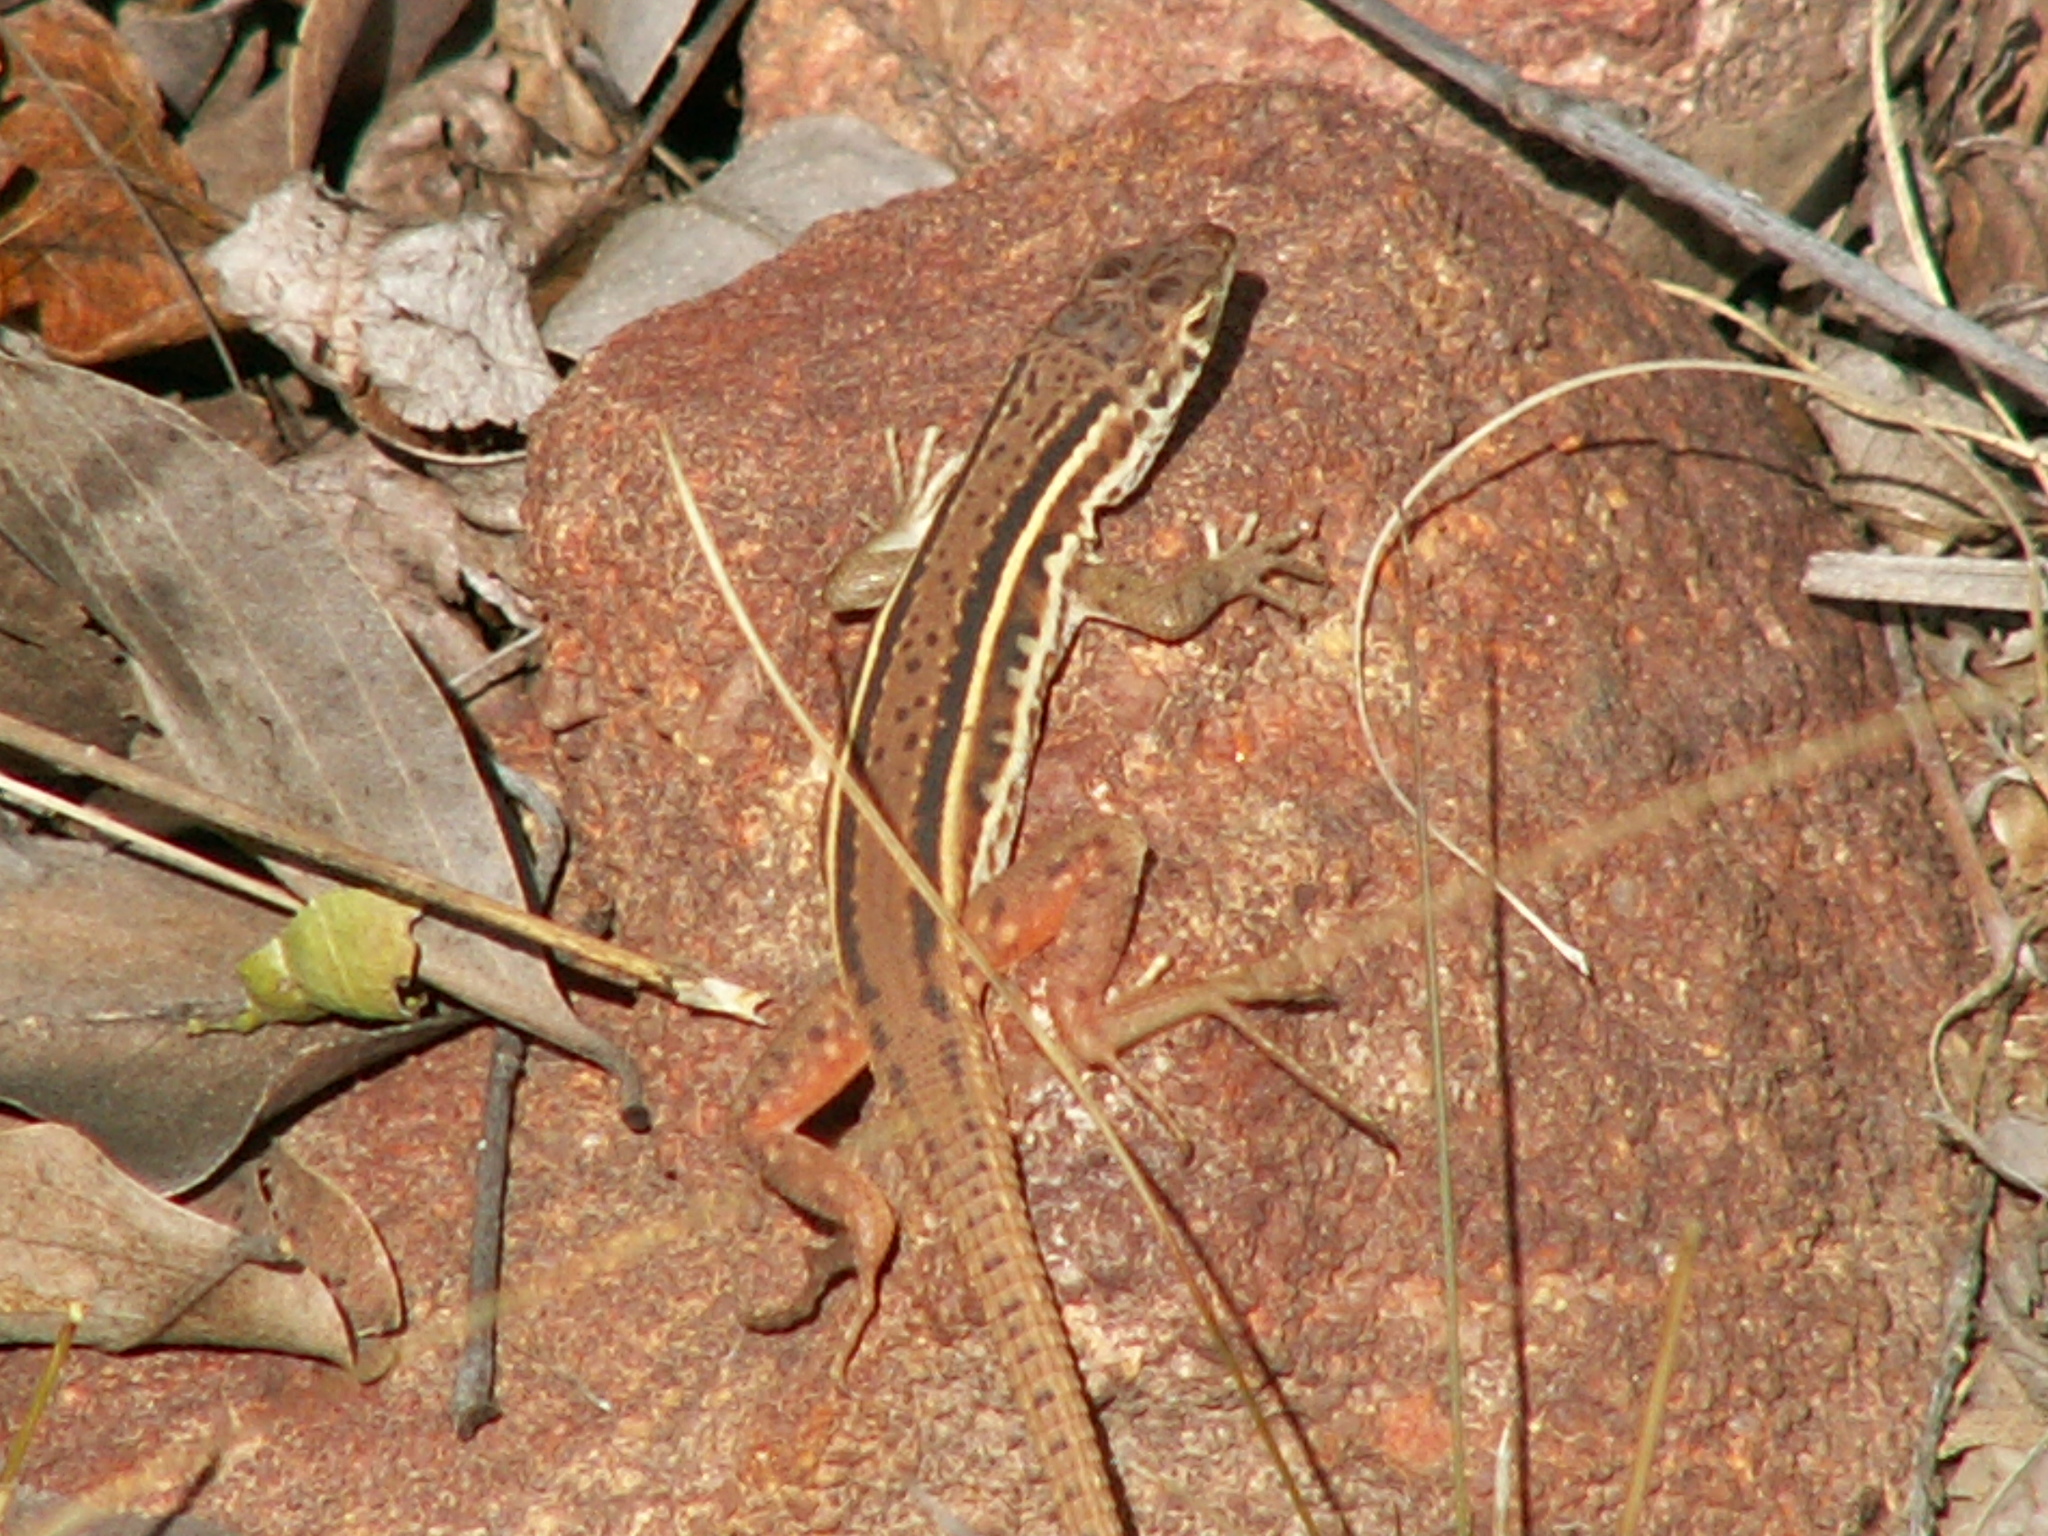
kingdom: Animalia
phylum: Chordata
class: Squamata
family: Lacertidae
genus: Pedioplanis
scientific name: Pedioplanis lineoocellata
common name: Spotted sand lizard
